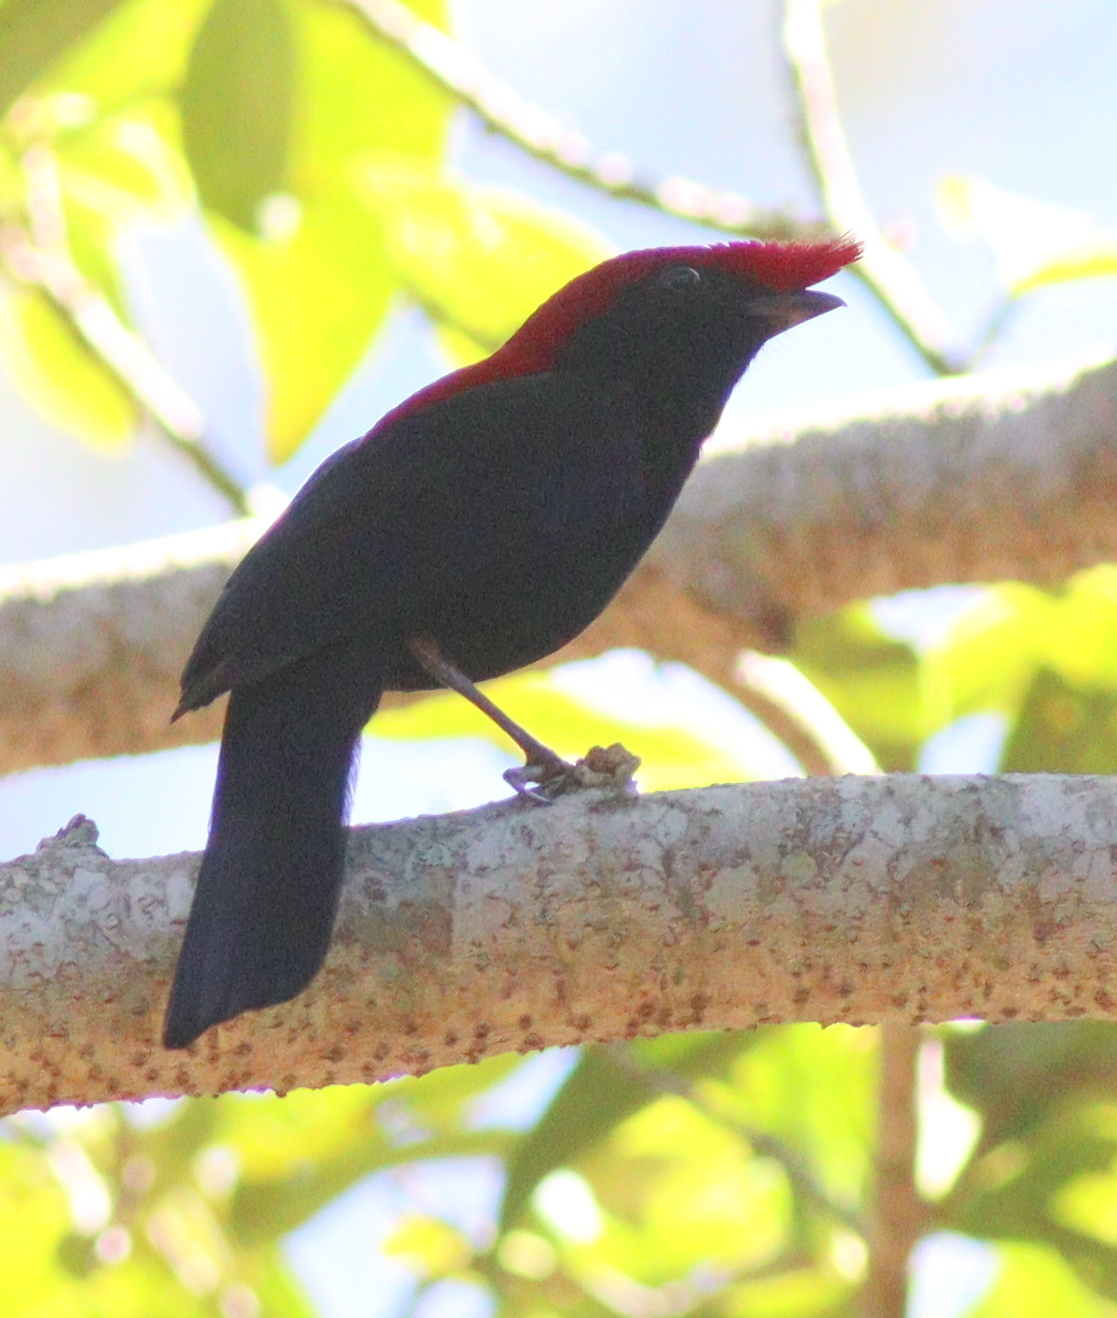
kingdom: Animalia
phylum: Chordata
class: Aves
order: Passeriformes
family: Pipridae
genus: Antilophia
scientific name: Antilophia galeata
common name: Helmeted manakin
